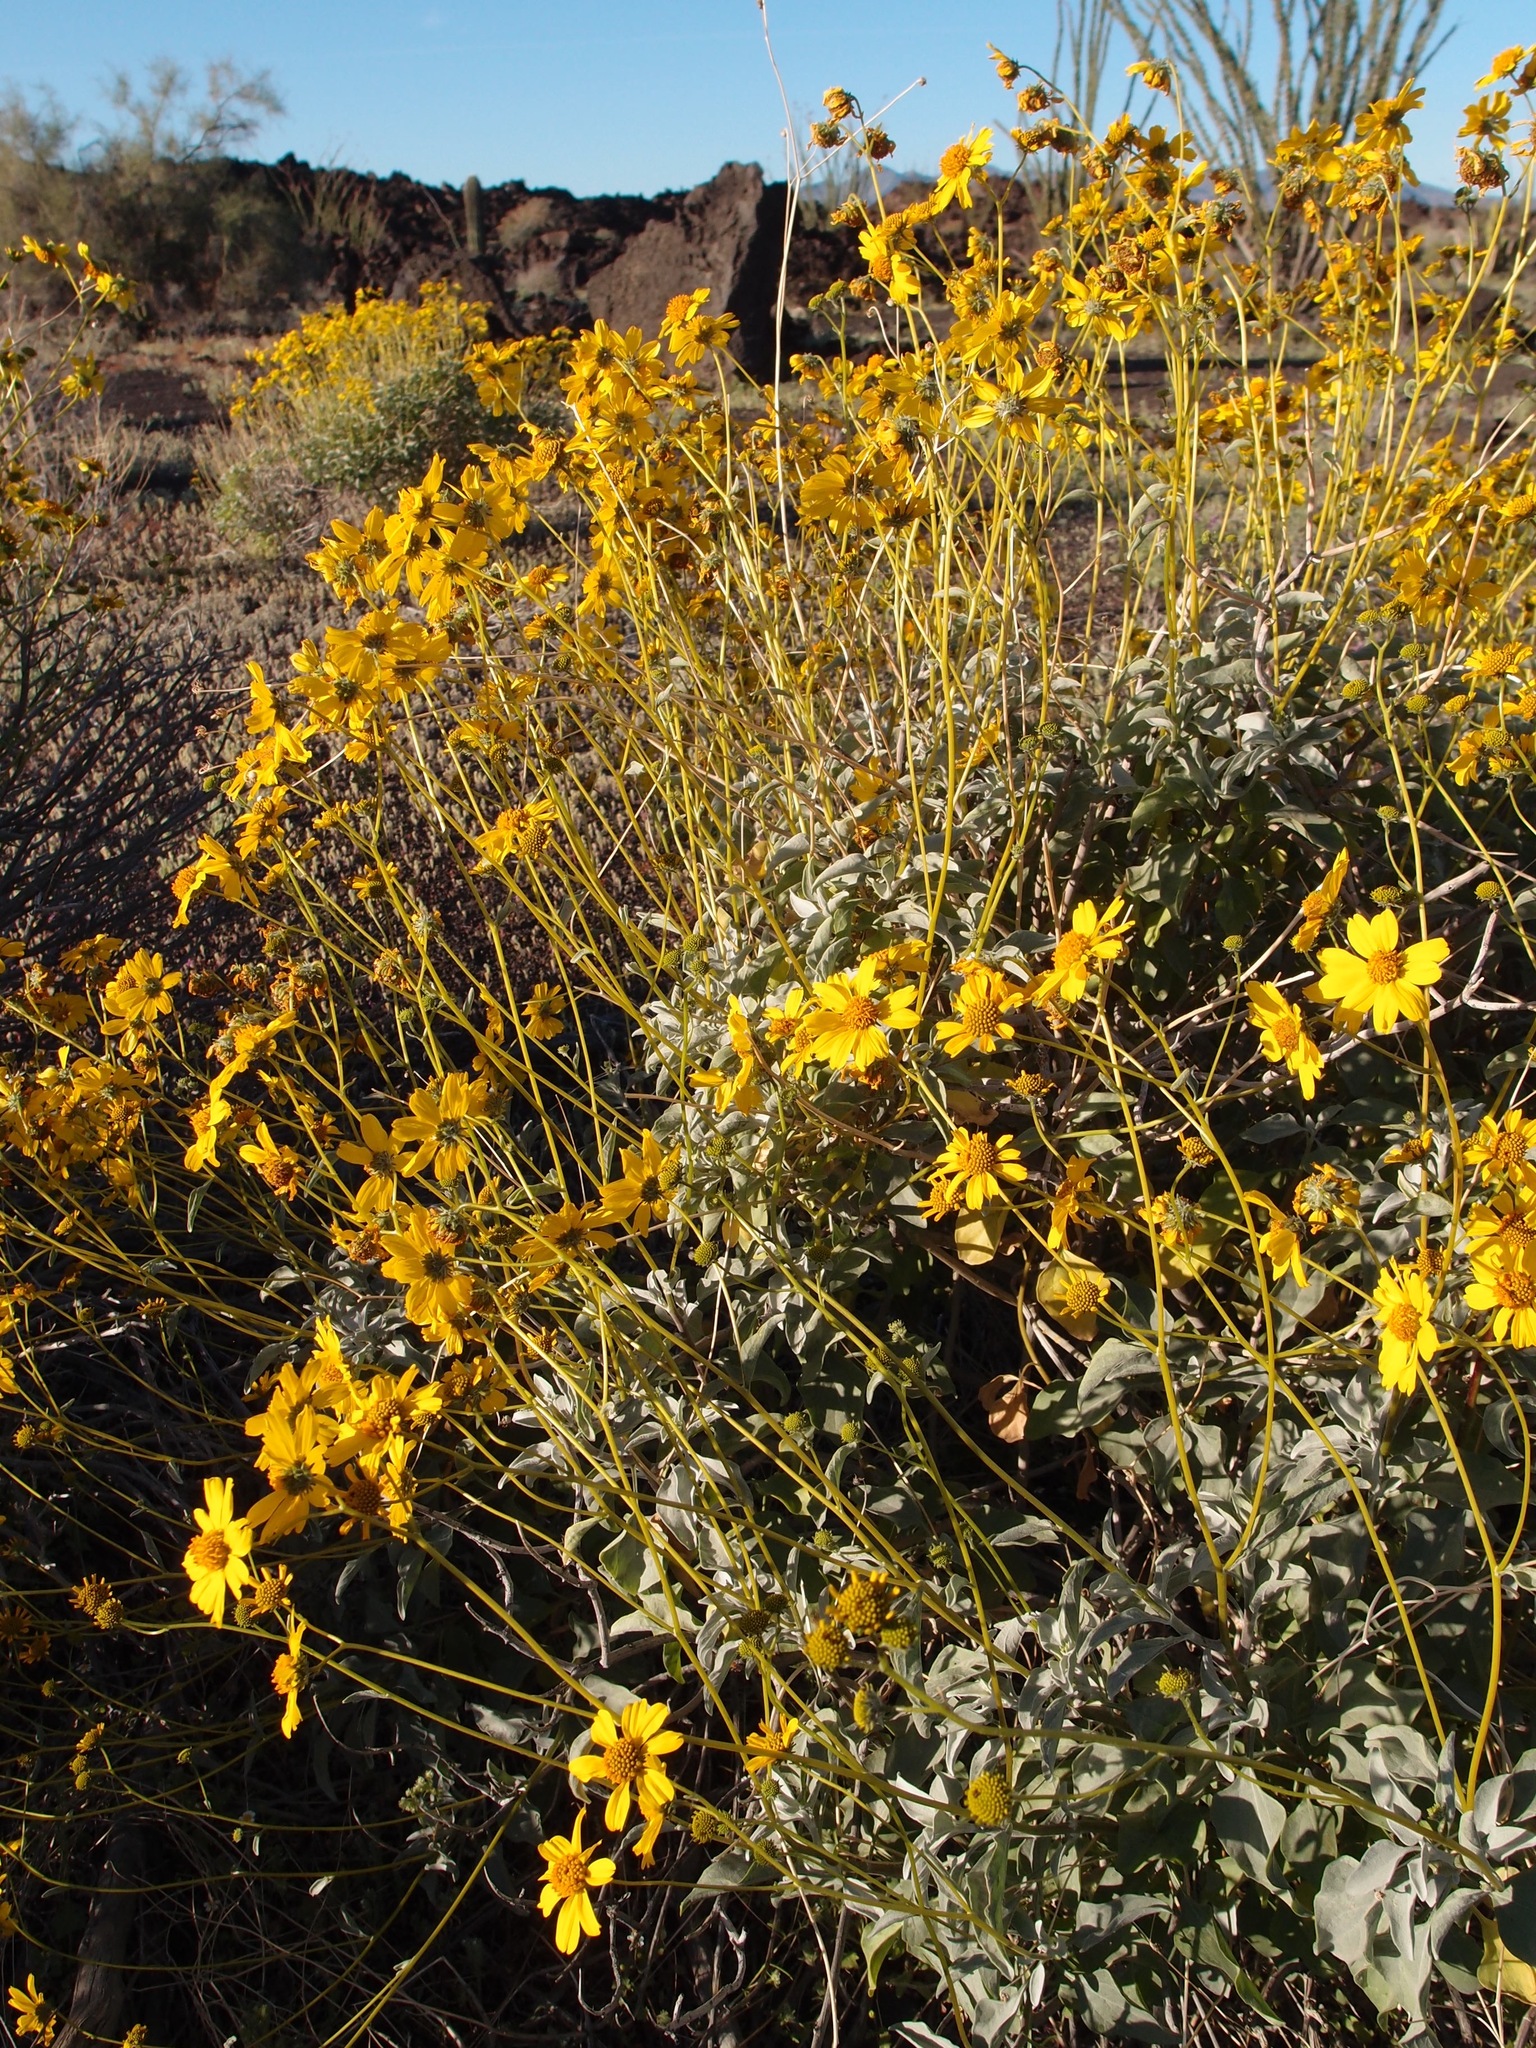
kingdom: Plantae
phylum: Tracheophyta
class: Magnoliopsida
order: Asterales
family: Asteraceae
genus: Encelia
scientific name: Encelia farinosa
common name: Brittlebush
